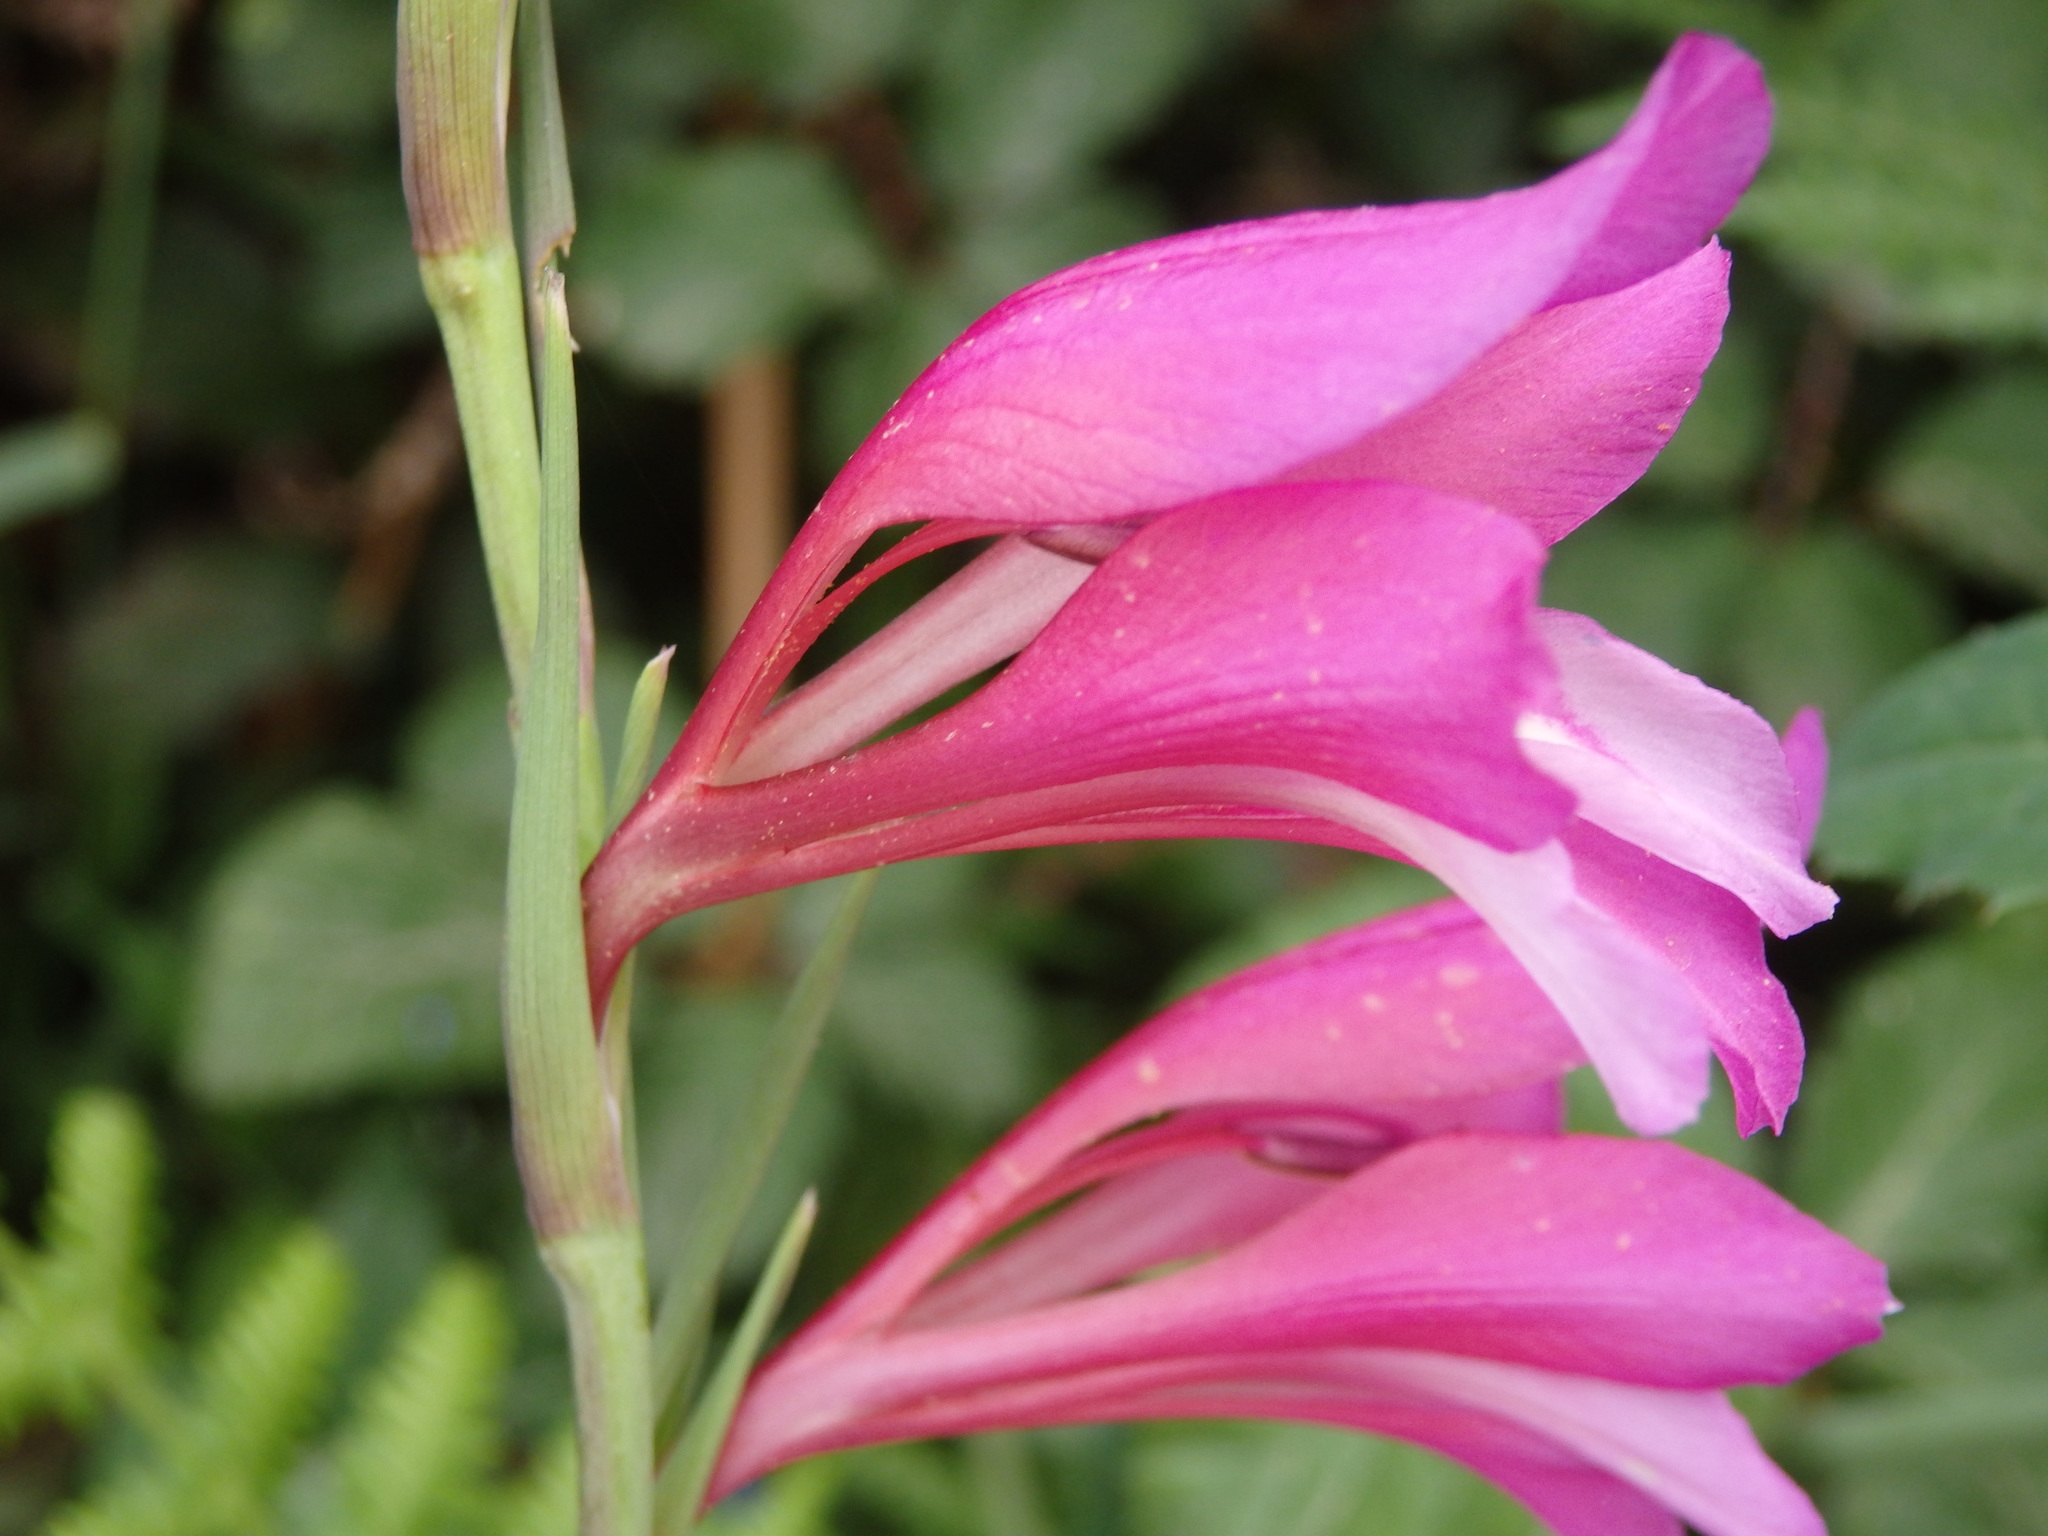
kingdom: Plantae
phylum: Tracheophyta
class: Liliopsida
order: Asparagales
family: Iridaceae
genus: Gladiolus
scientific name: Gladiolus illyricus
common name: Wild gladiolus
